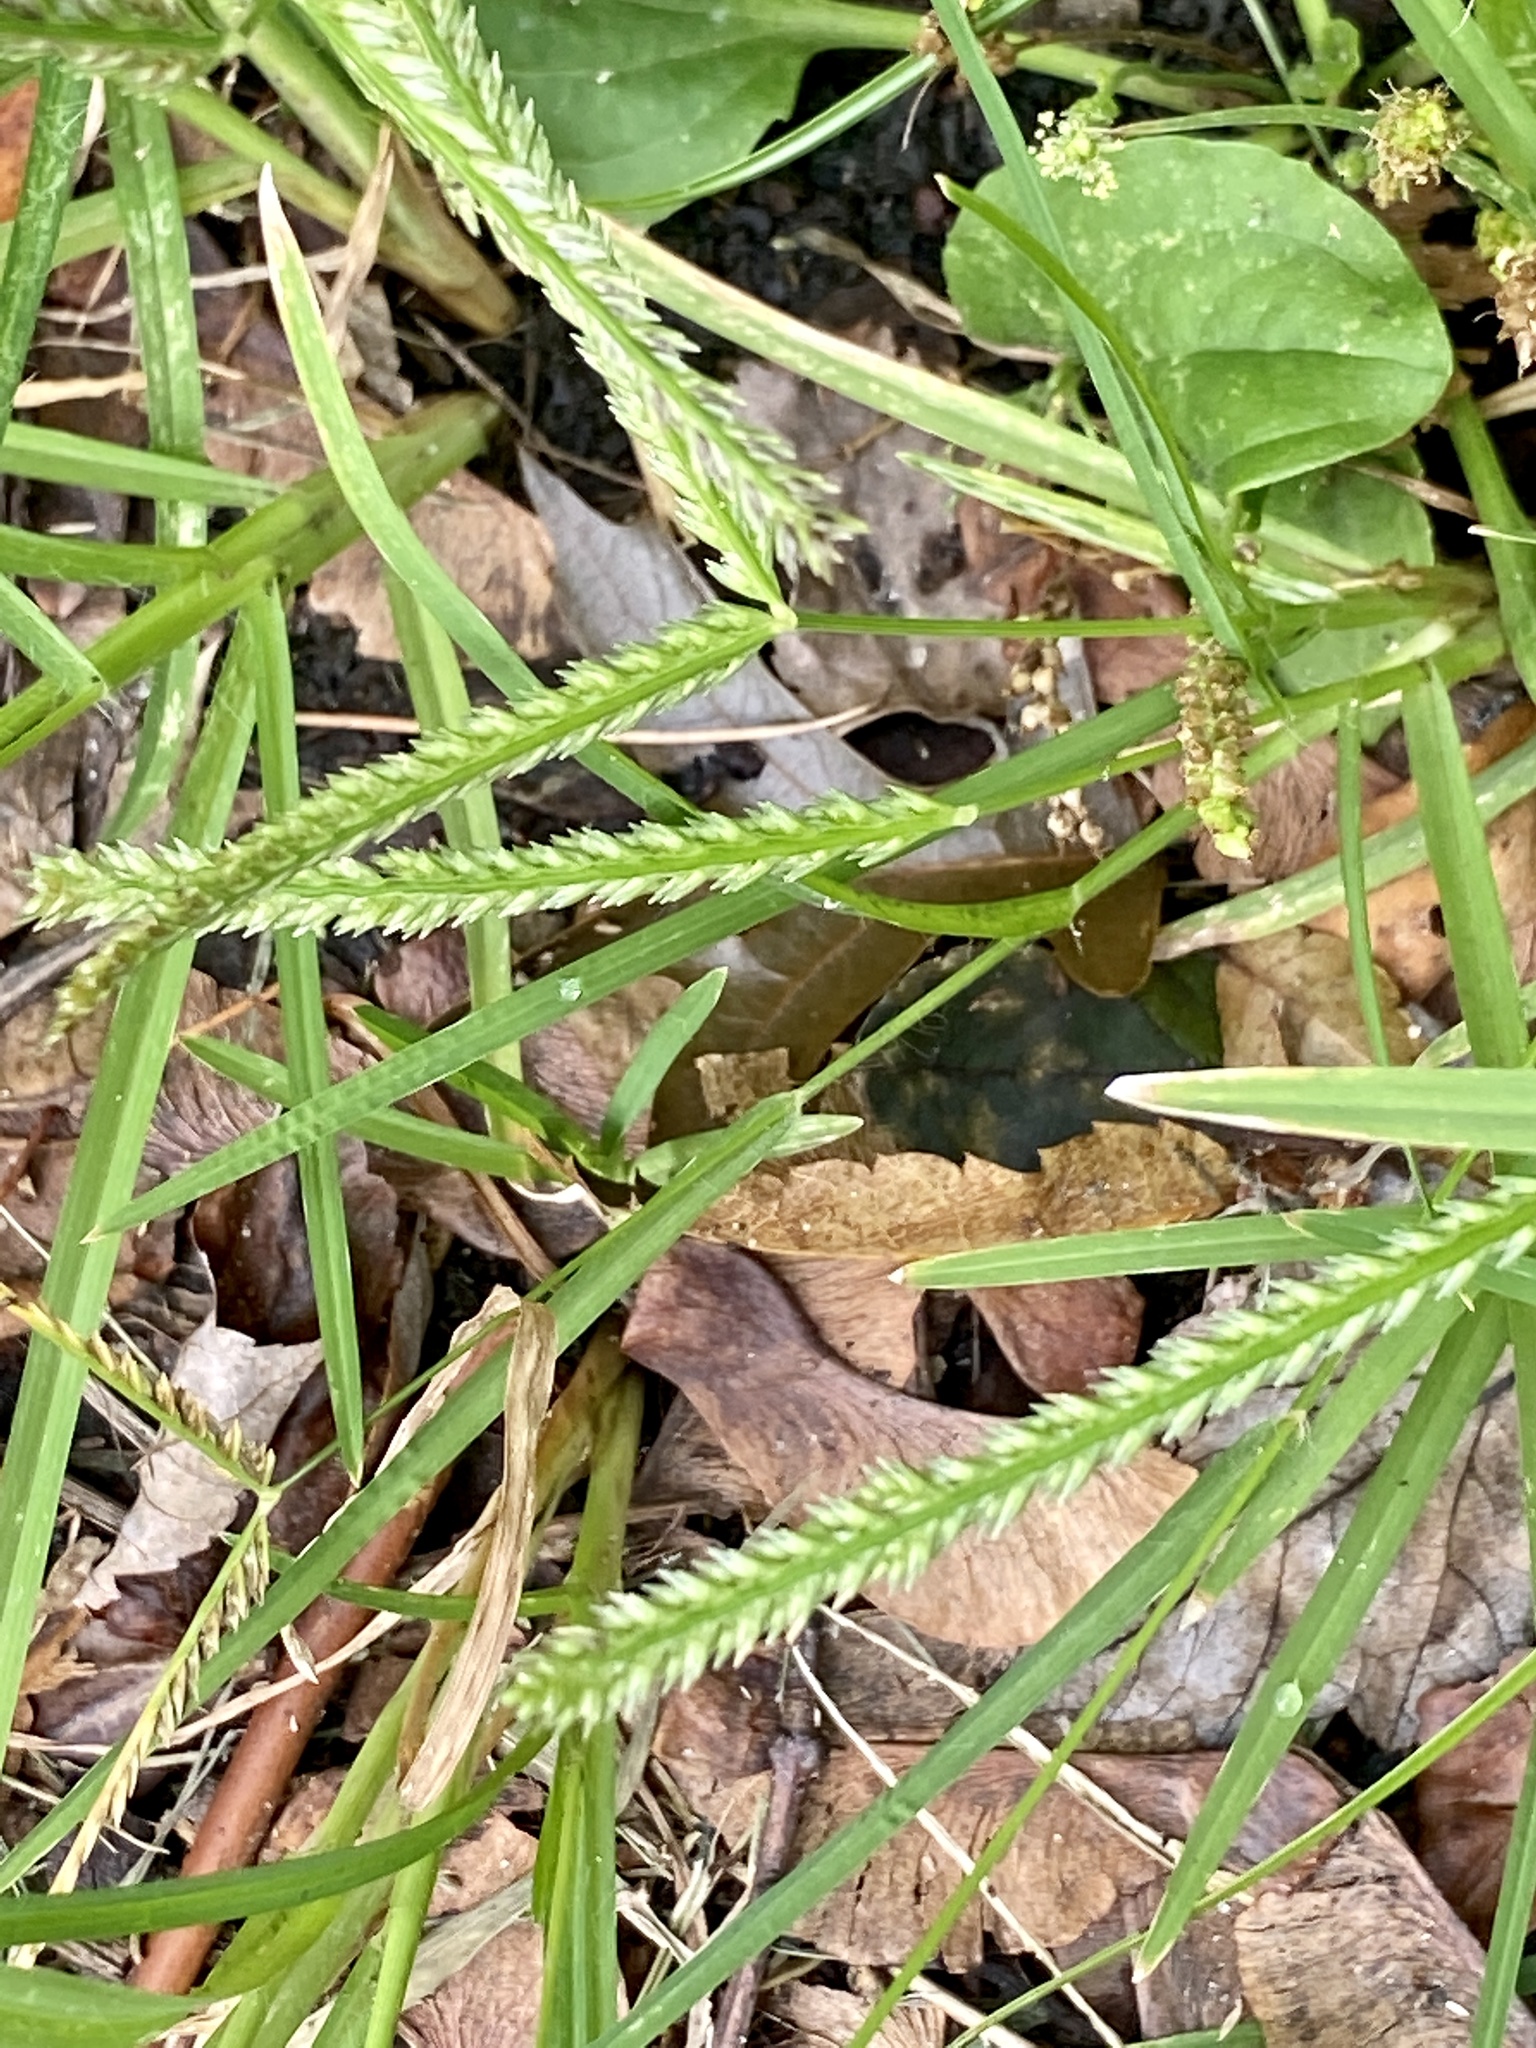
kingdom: Plantae
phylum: Tracheophyta
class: Liliopsida
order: Poales
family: Poaceae
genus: Eleusine
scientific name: Eleusine indica
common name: Yard-grass
